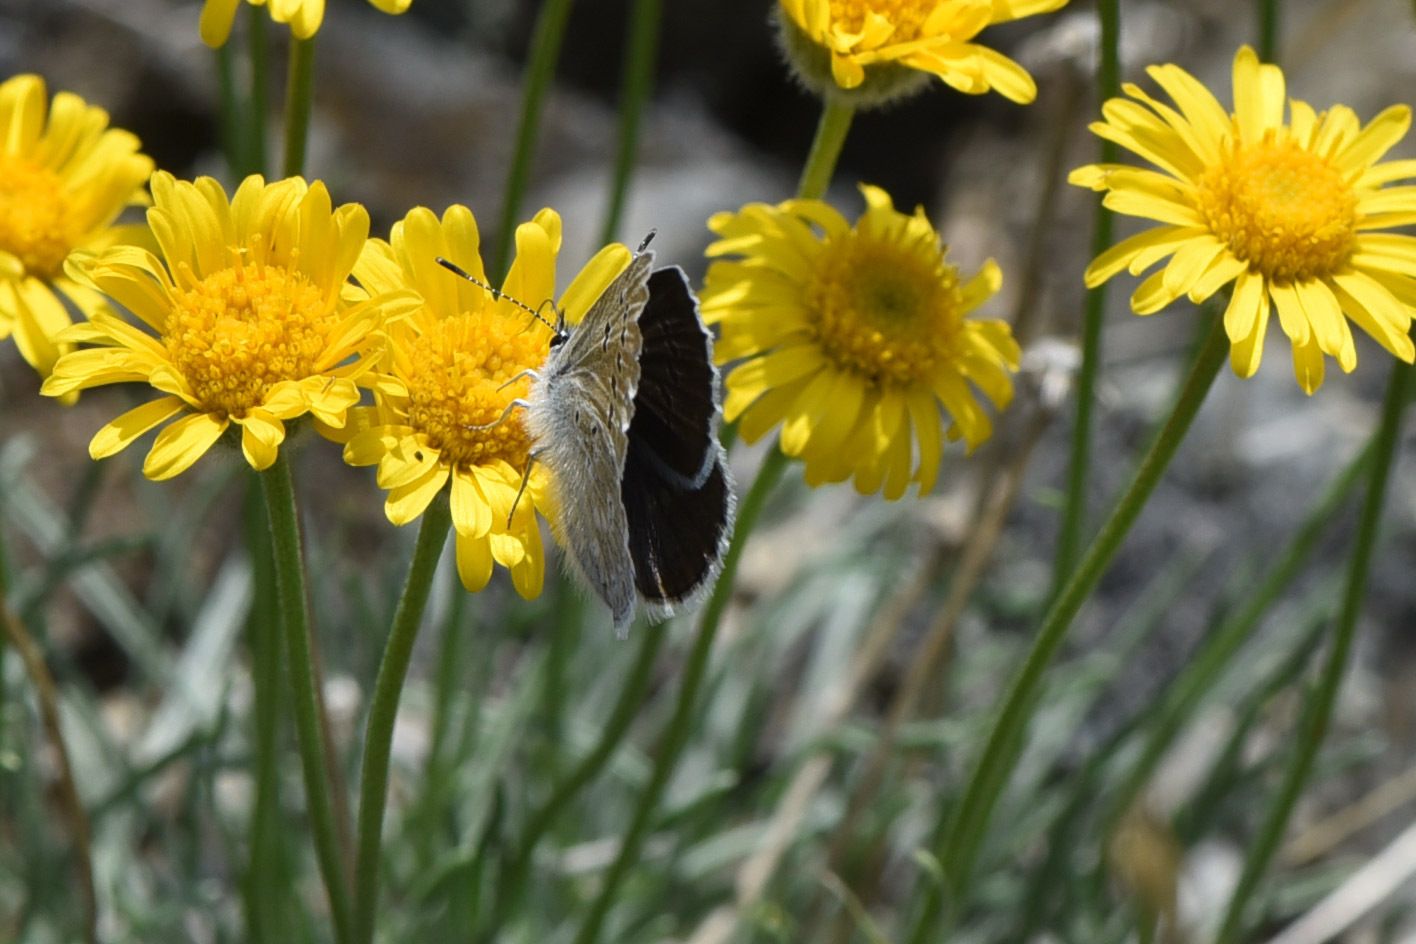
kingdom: Animalia
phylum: Arthropoda
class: Insecta
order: Lepidoptera
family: Lycaenidae
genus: Icaricia
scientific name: Icaricia icarioides
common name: Boisduval's blue
